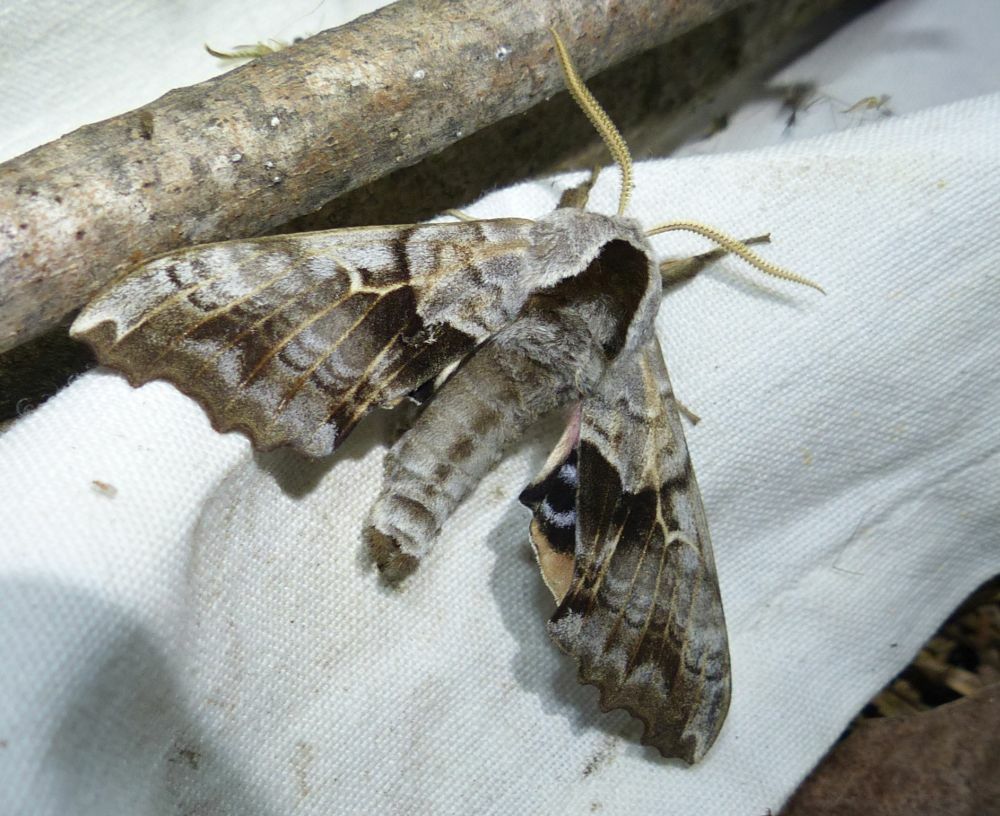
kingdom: Animalia
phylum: Arthropoda
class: Insecta
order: Lepidoptera
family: Sphingidae
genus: Smerinthus
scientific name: Smerinthus cerisyi
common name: Cerisy's sphinx moth
